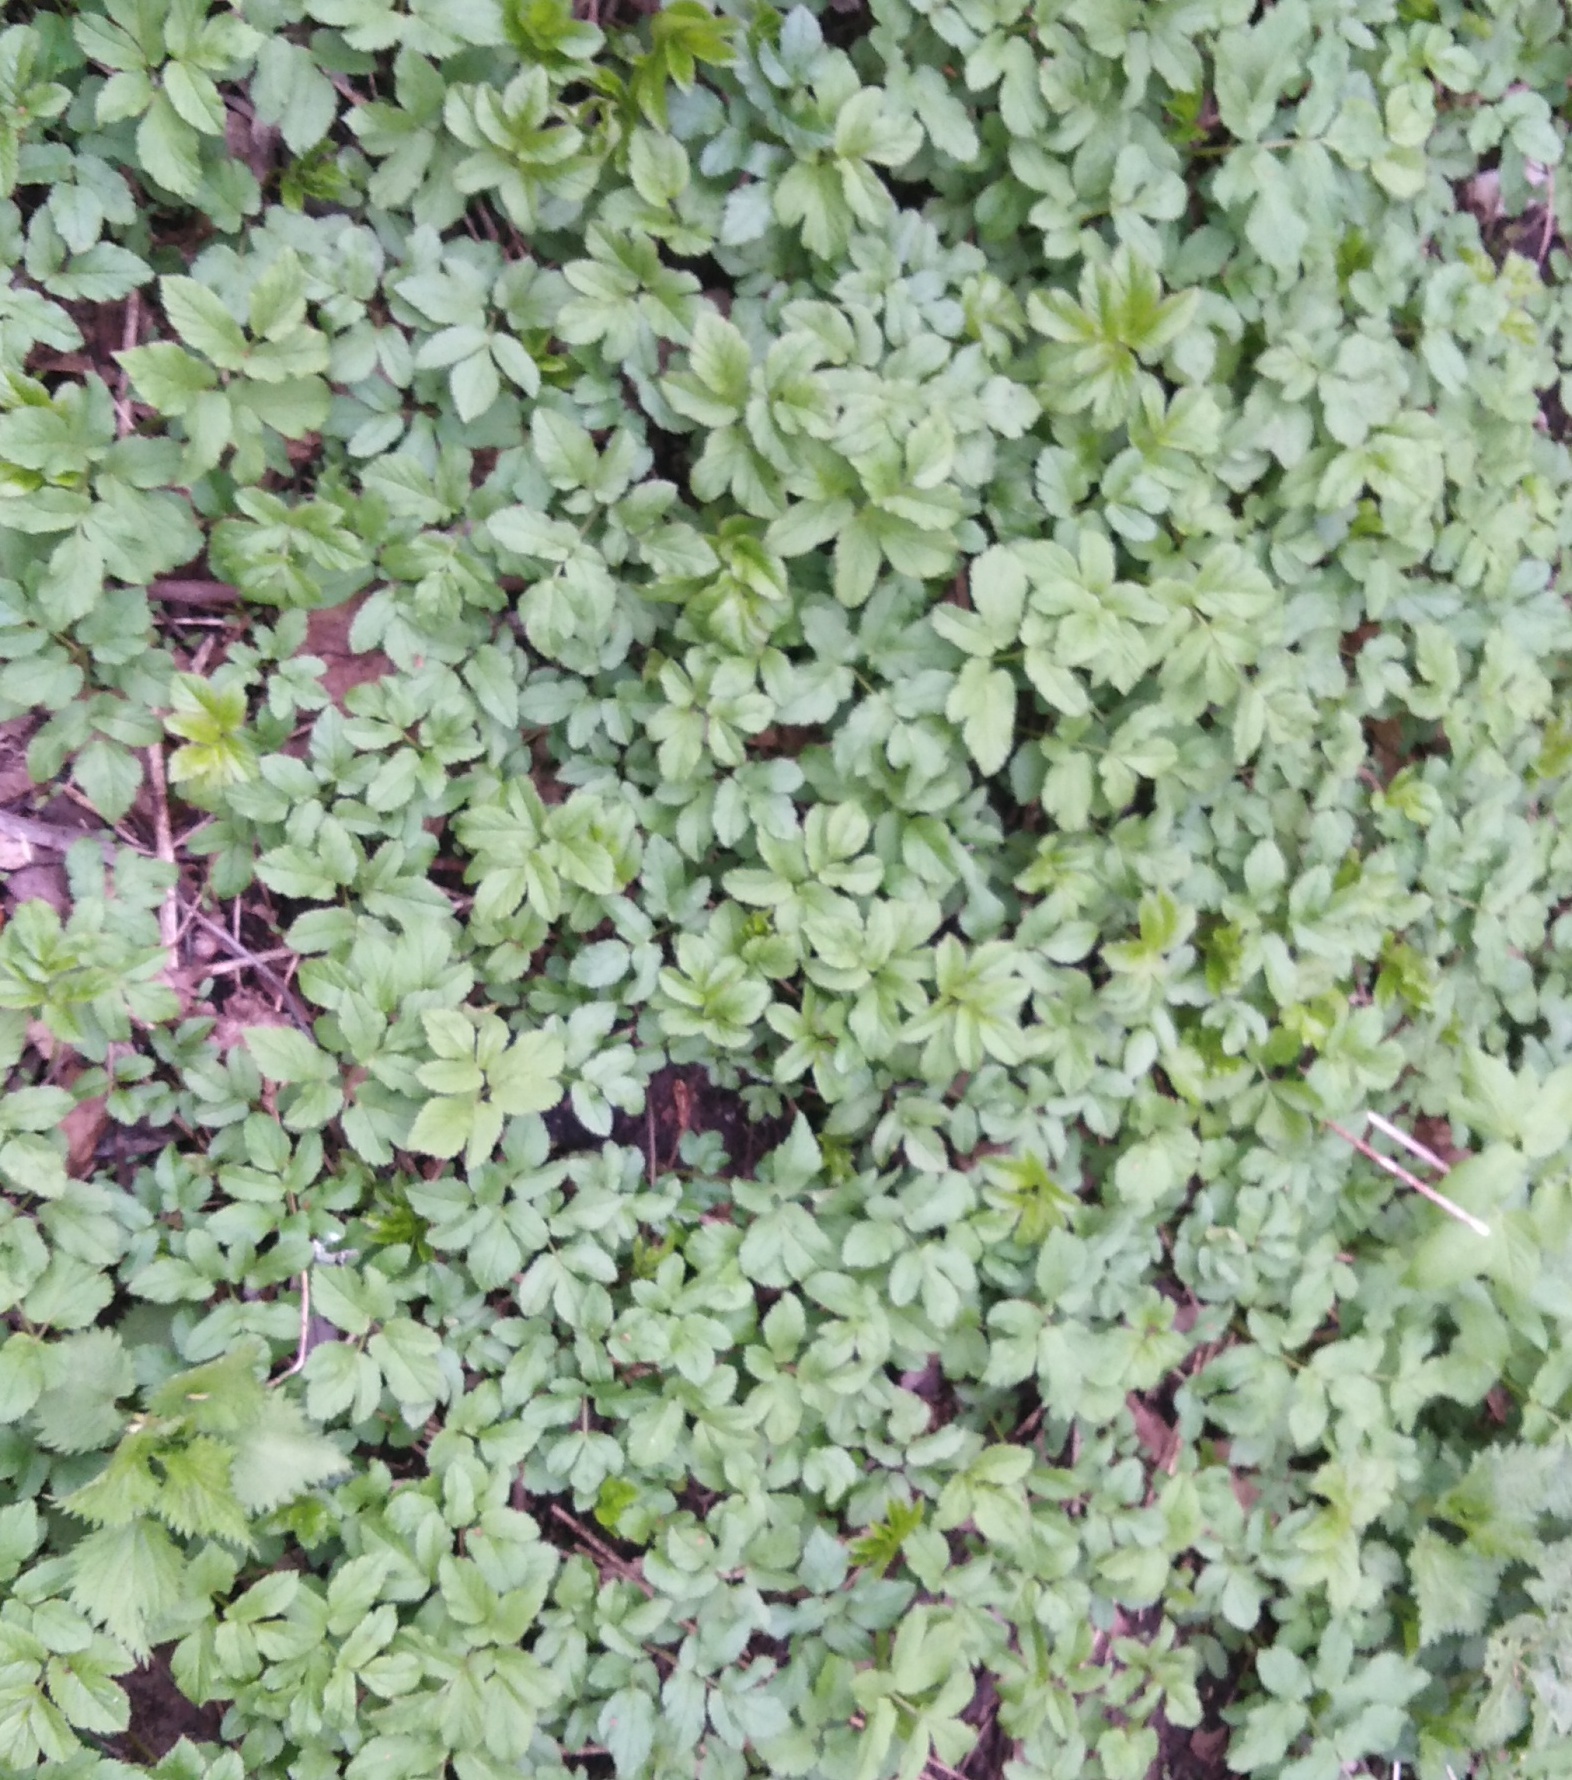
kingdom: Plantae
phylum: Tracheophyta
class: Magnoliopsida
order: Apiales
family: Apiaceae
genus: Aegopodium
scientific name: Aegopodium podagraria
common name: Ground-elder
